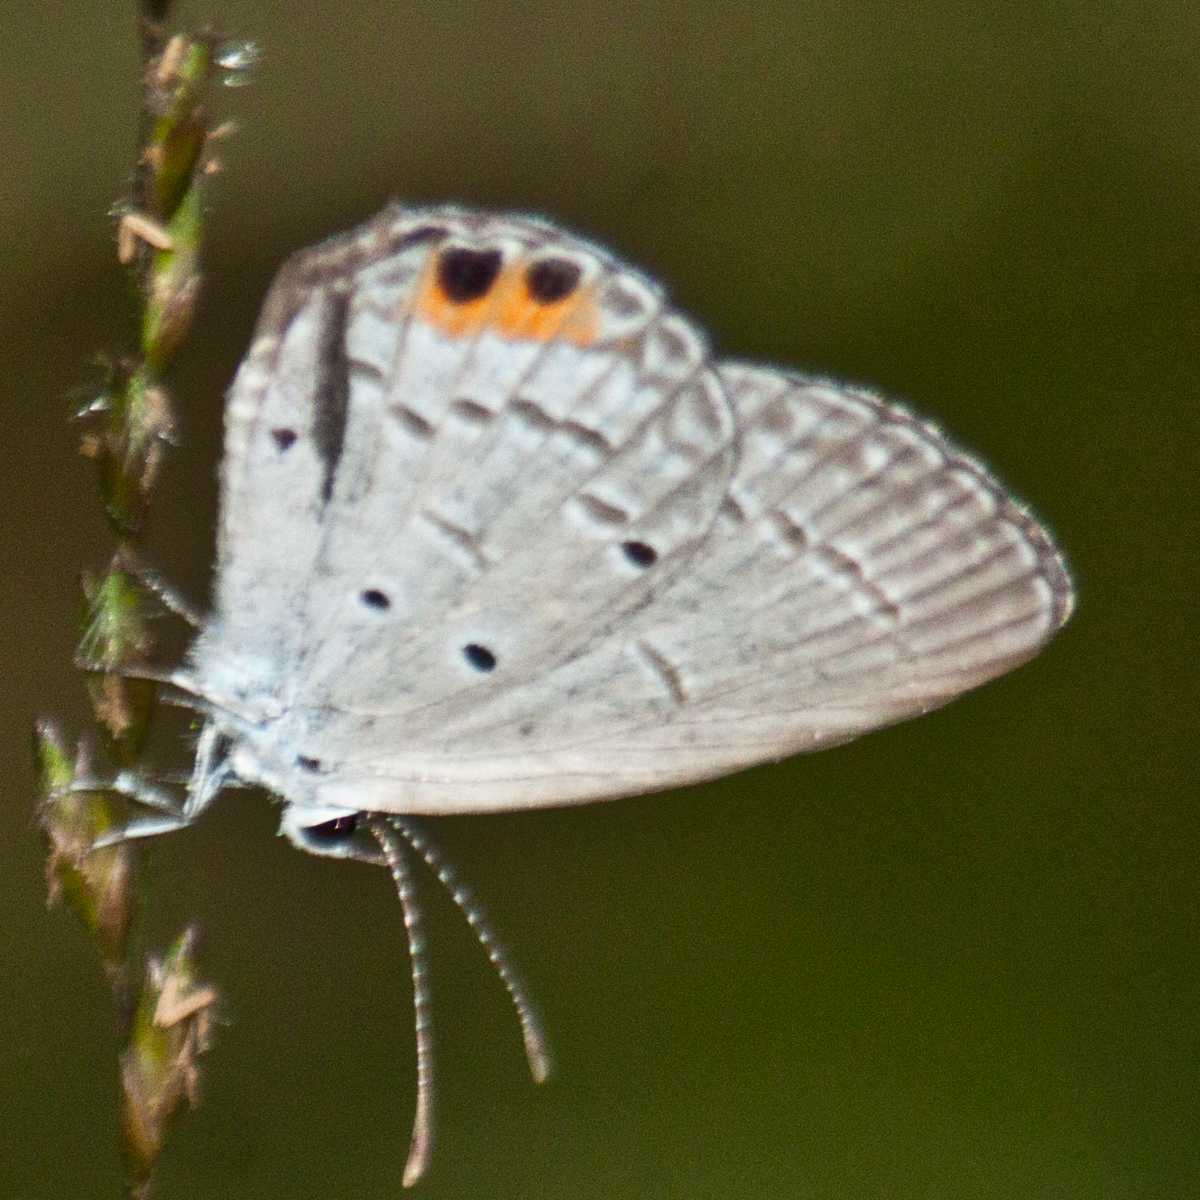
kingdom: Animalia
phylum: Arthropoda
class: Insecta
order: Lepidoptera
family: Lycaenidae
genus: Everes
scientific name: Everes lacturnus
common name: Orange-tipped pea-blue
